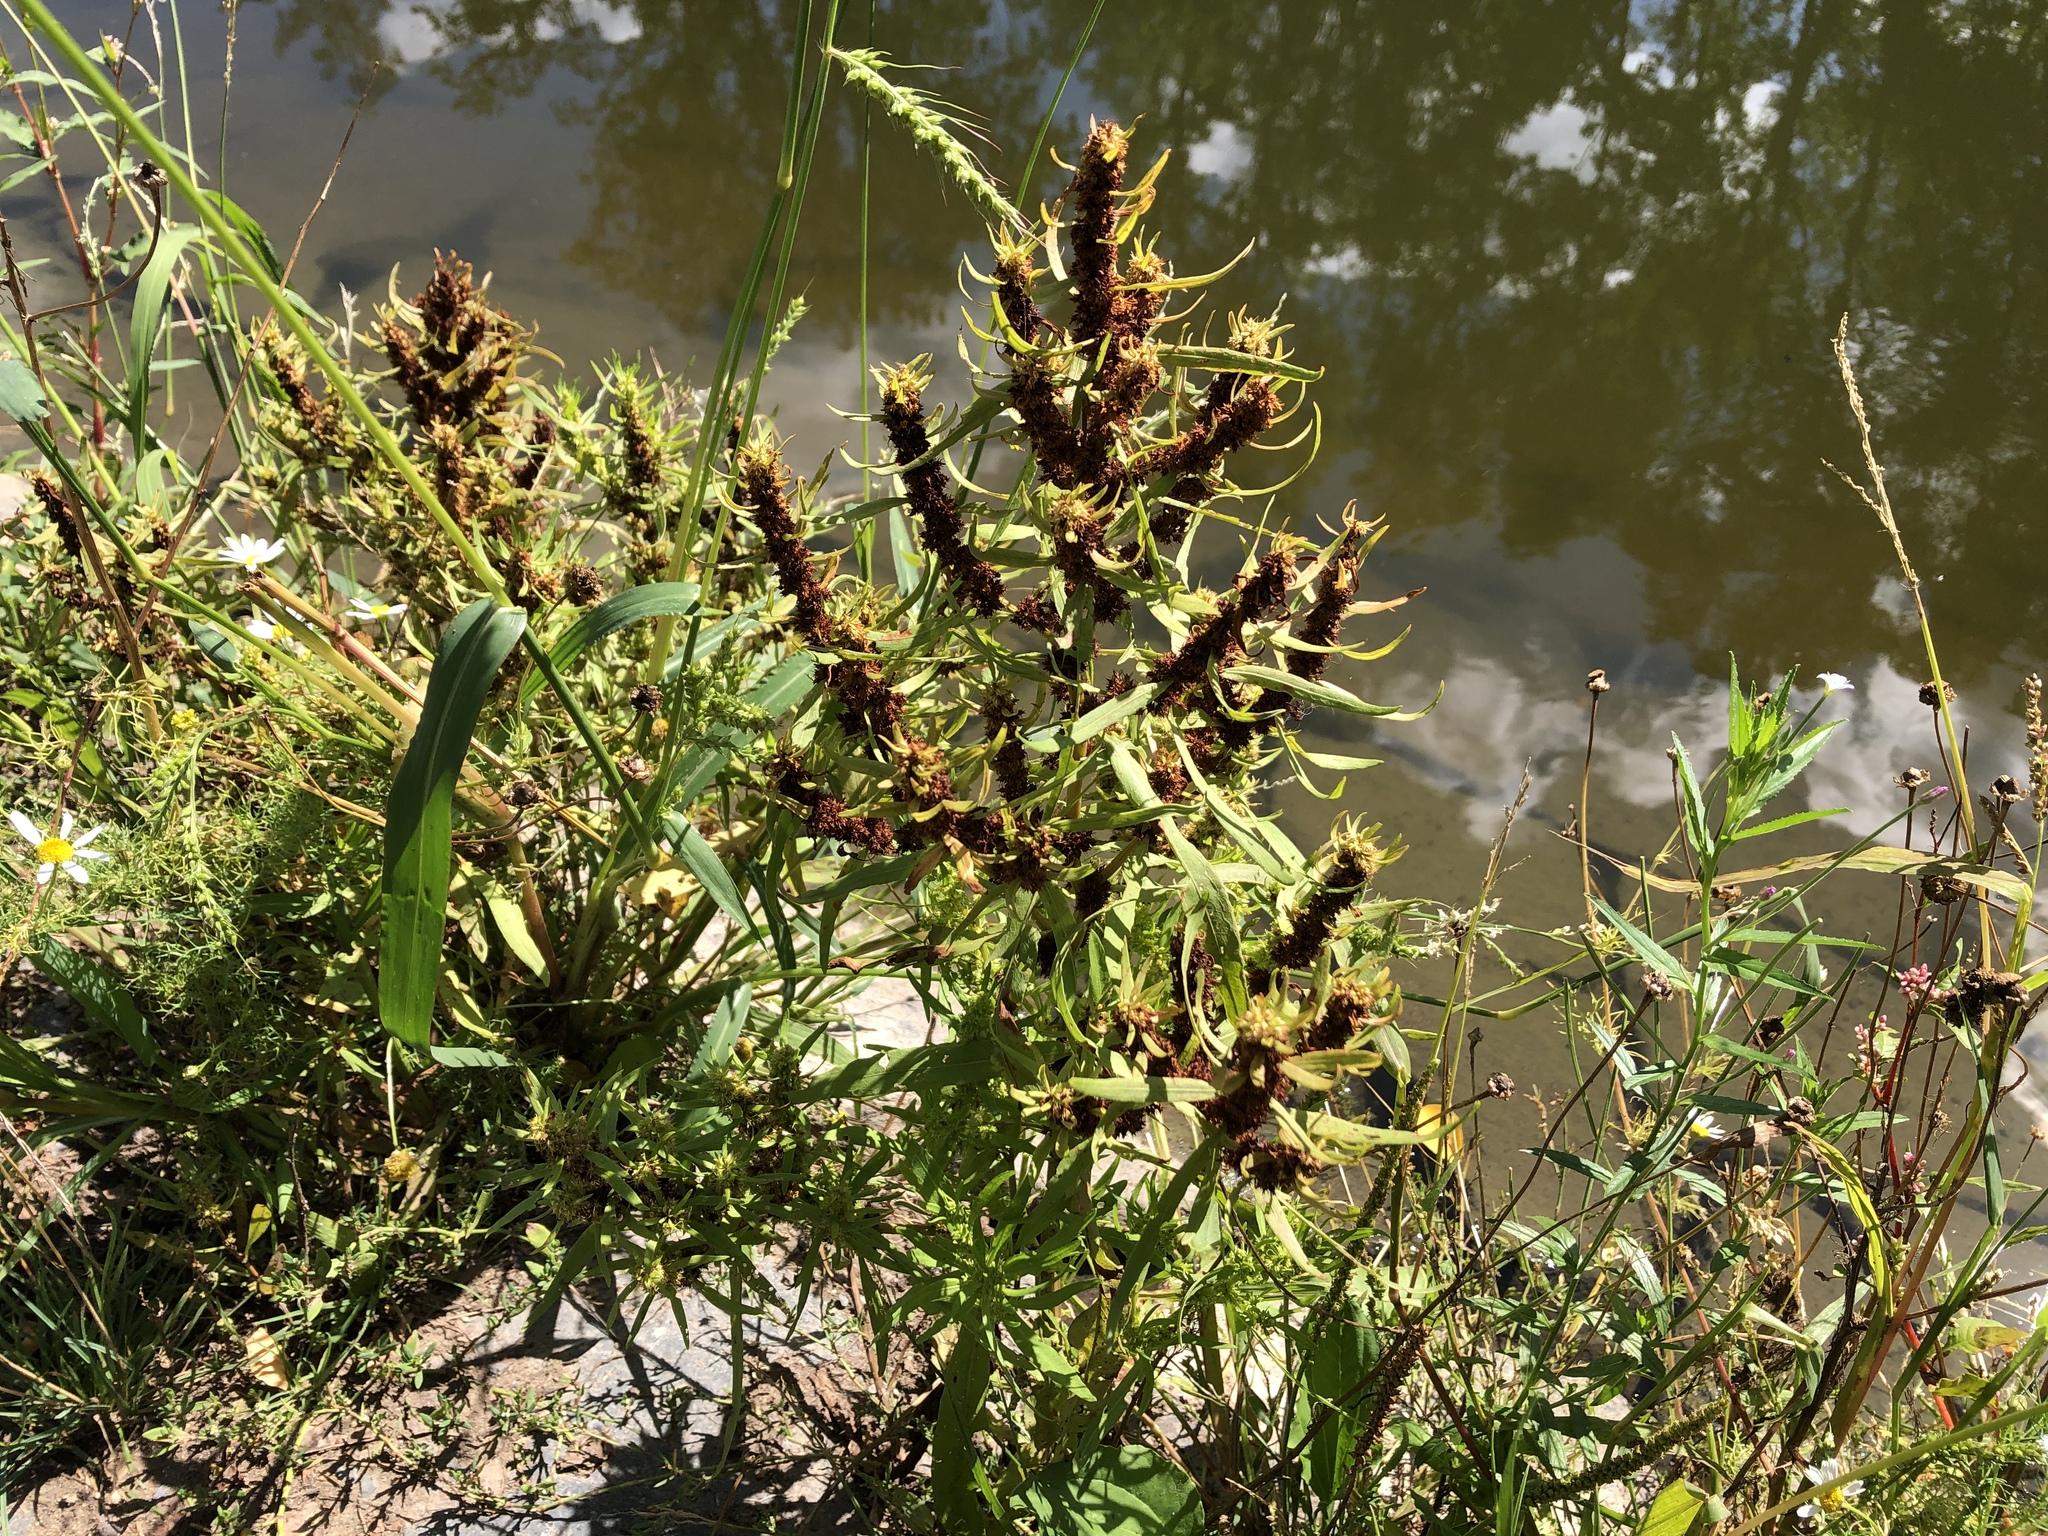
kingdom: Plantae
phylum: Tracheophyta
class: Magnoliopsida
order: Caryophyllales
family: Polygonaceae
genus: Rumex
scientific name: Rumex maritimus
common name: Golden dock
